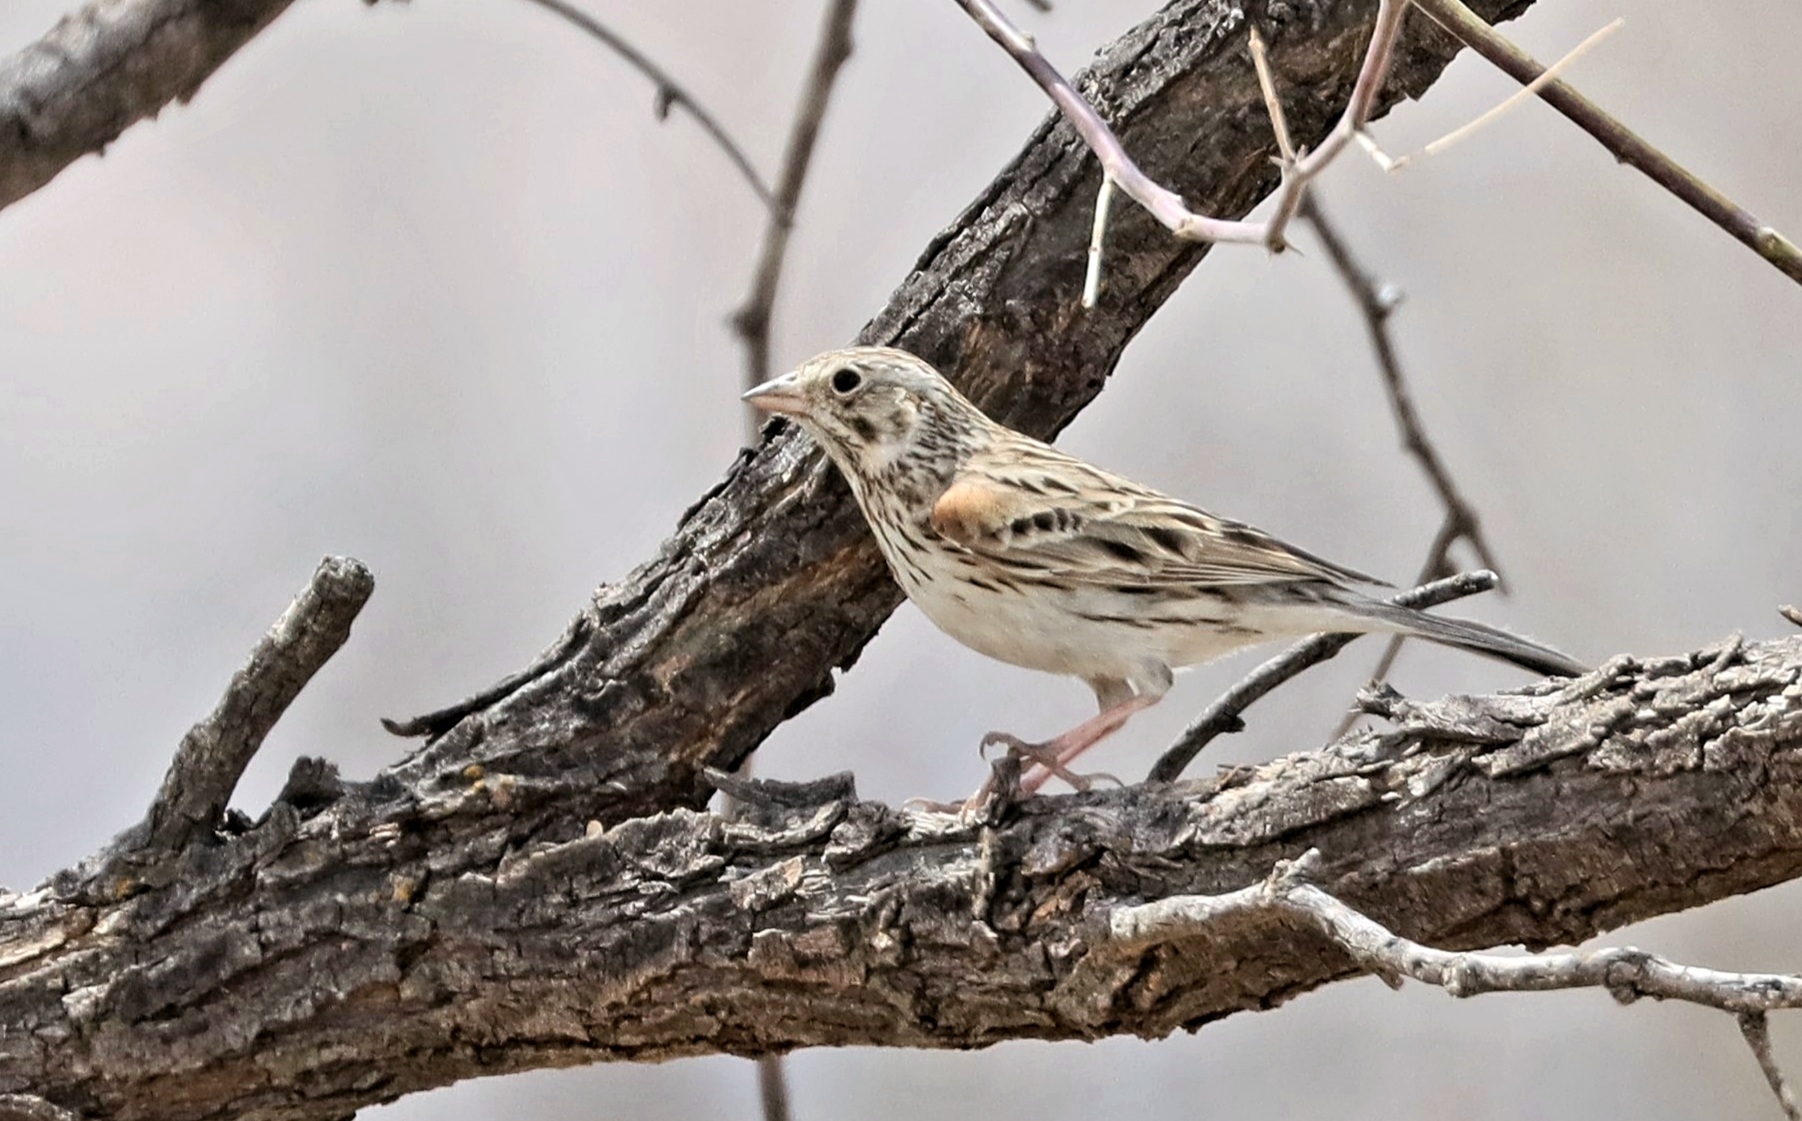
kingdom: Animalia
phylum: Chordata
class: Aves
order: Passeriformes
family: Passerellidae
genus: Pooecetes
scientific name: Pooecetes gramineus
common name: Vesper sparrow
